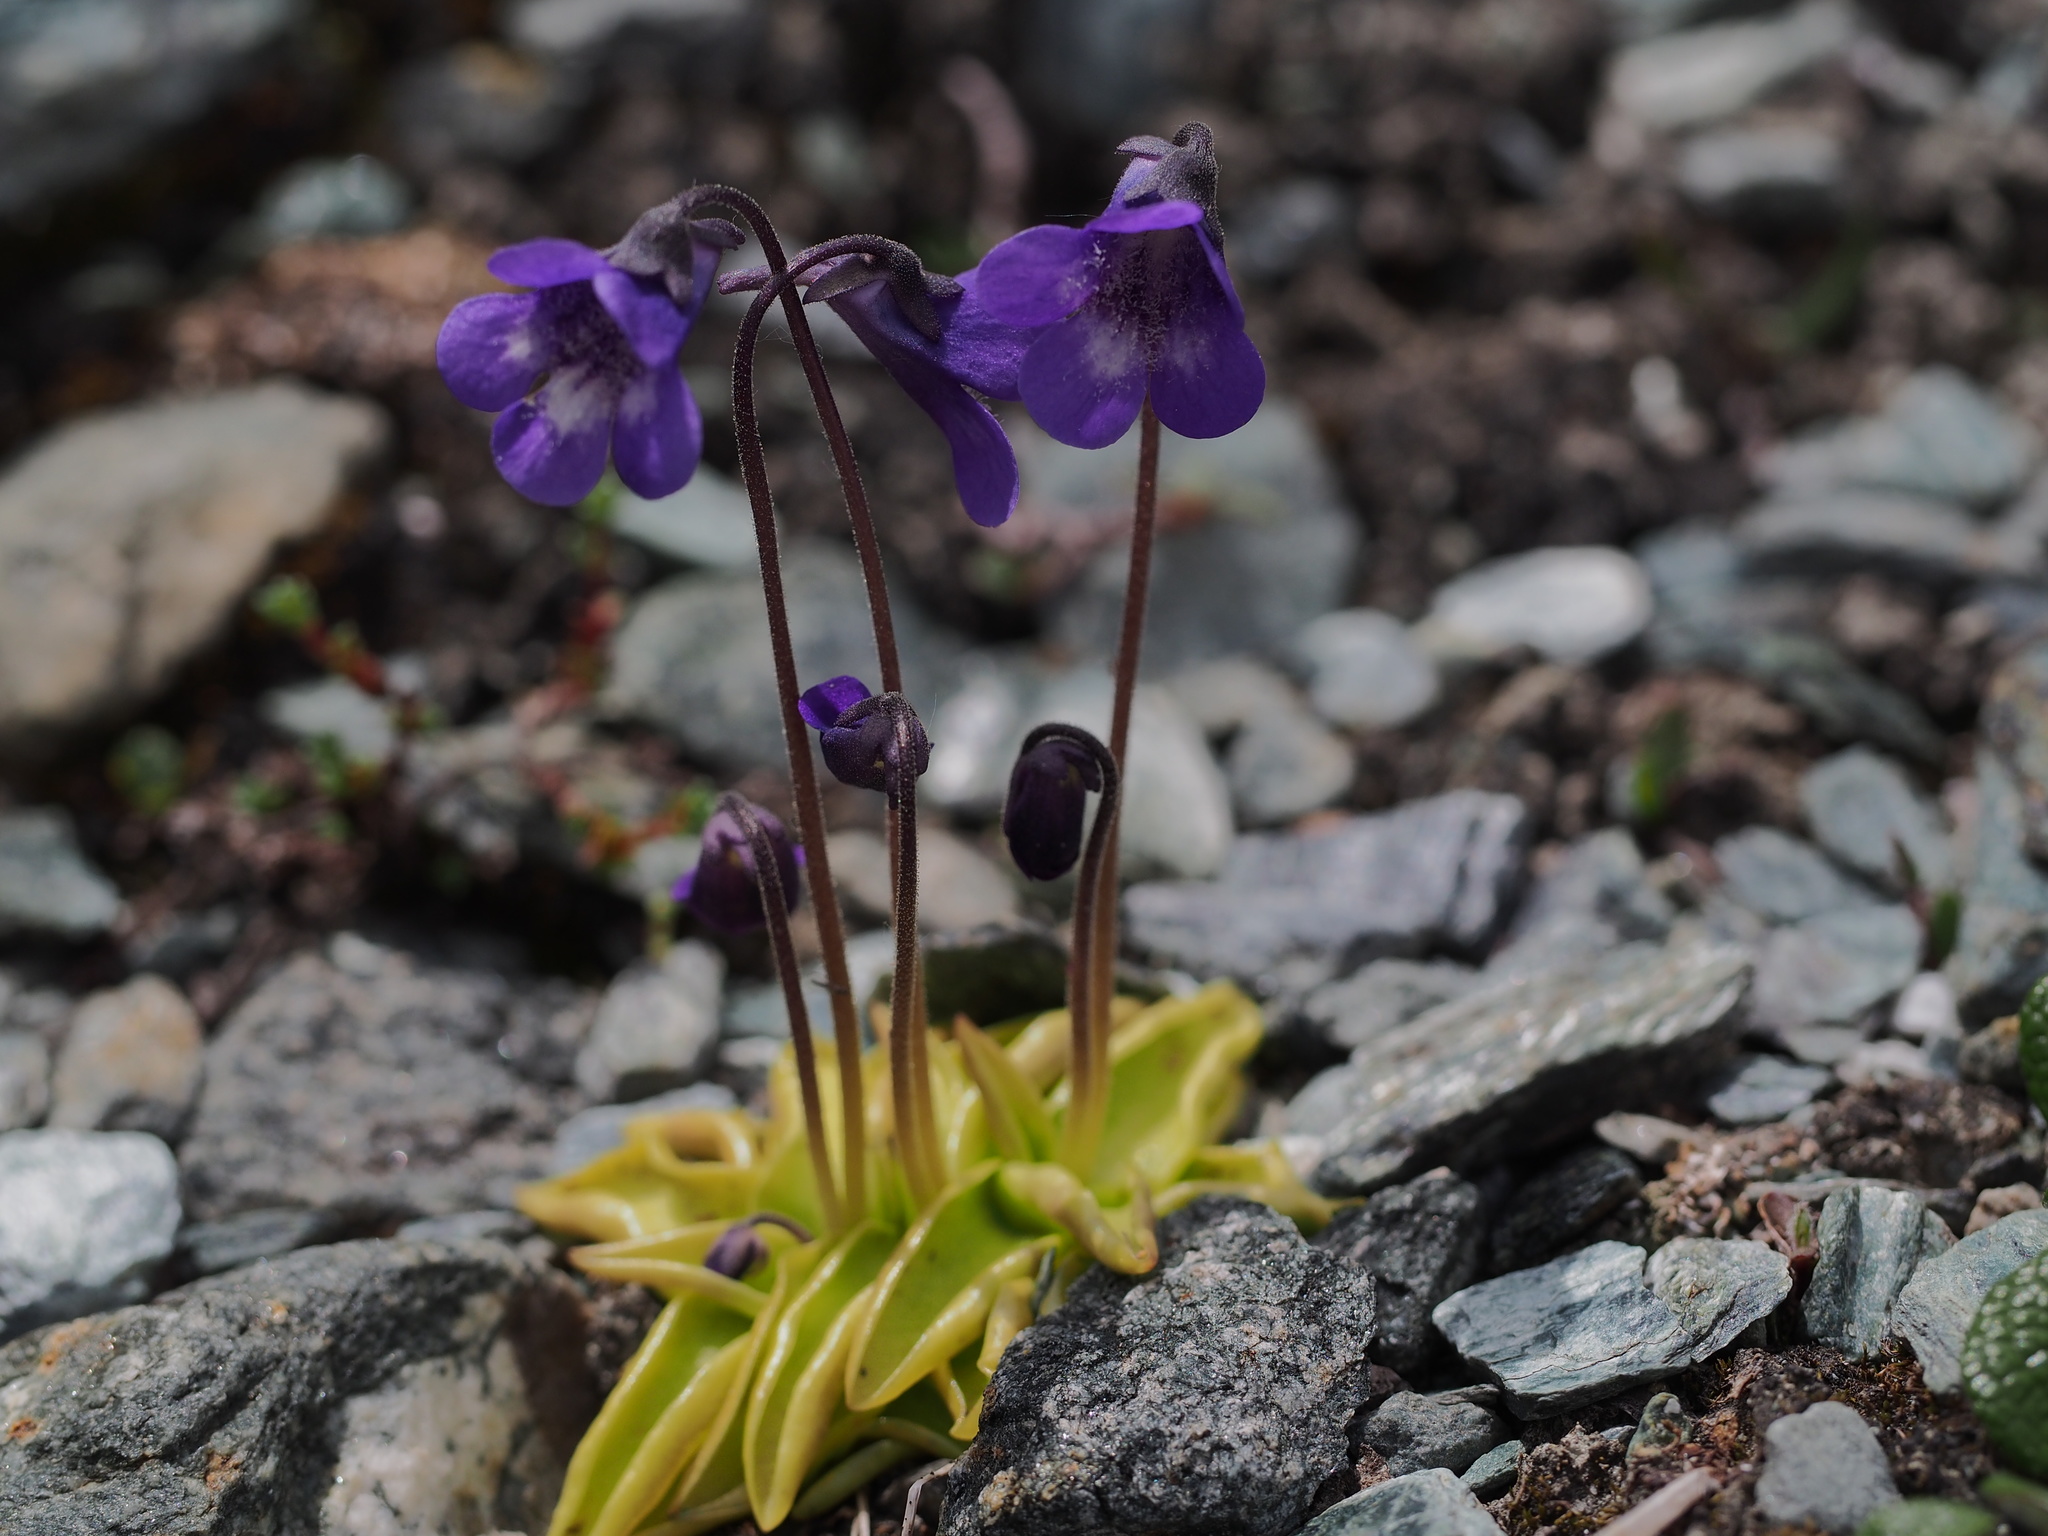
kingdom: Plantae
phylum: Tracheophyta
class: Magnoliopsida
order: Lamiales
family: Lentibulariaceae
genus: Pinguicula
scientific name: Pinguicula leptoceras
